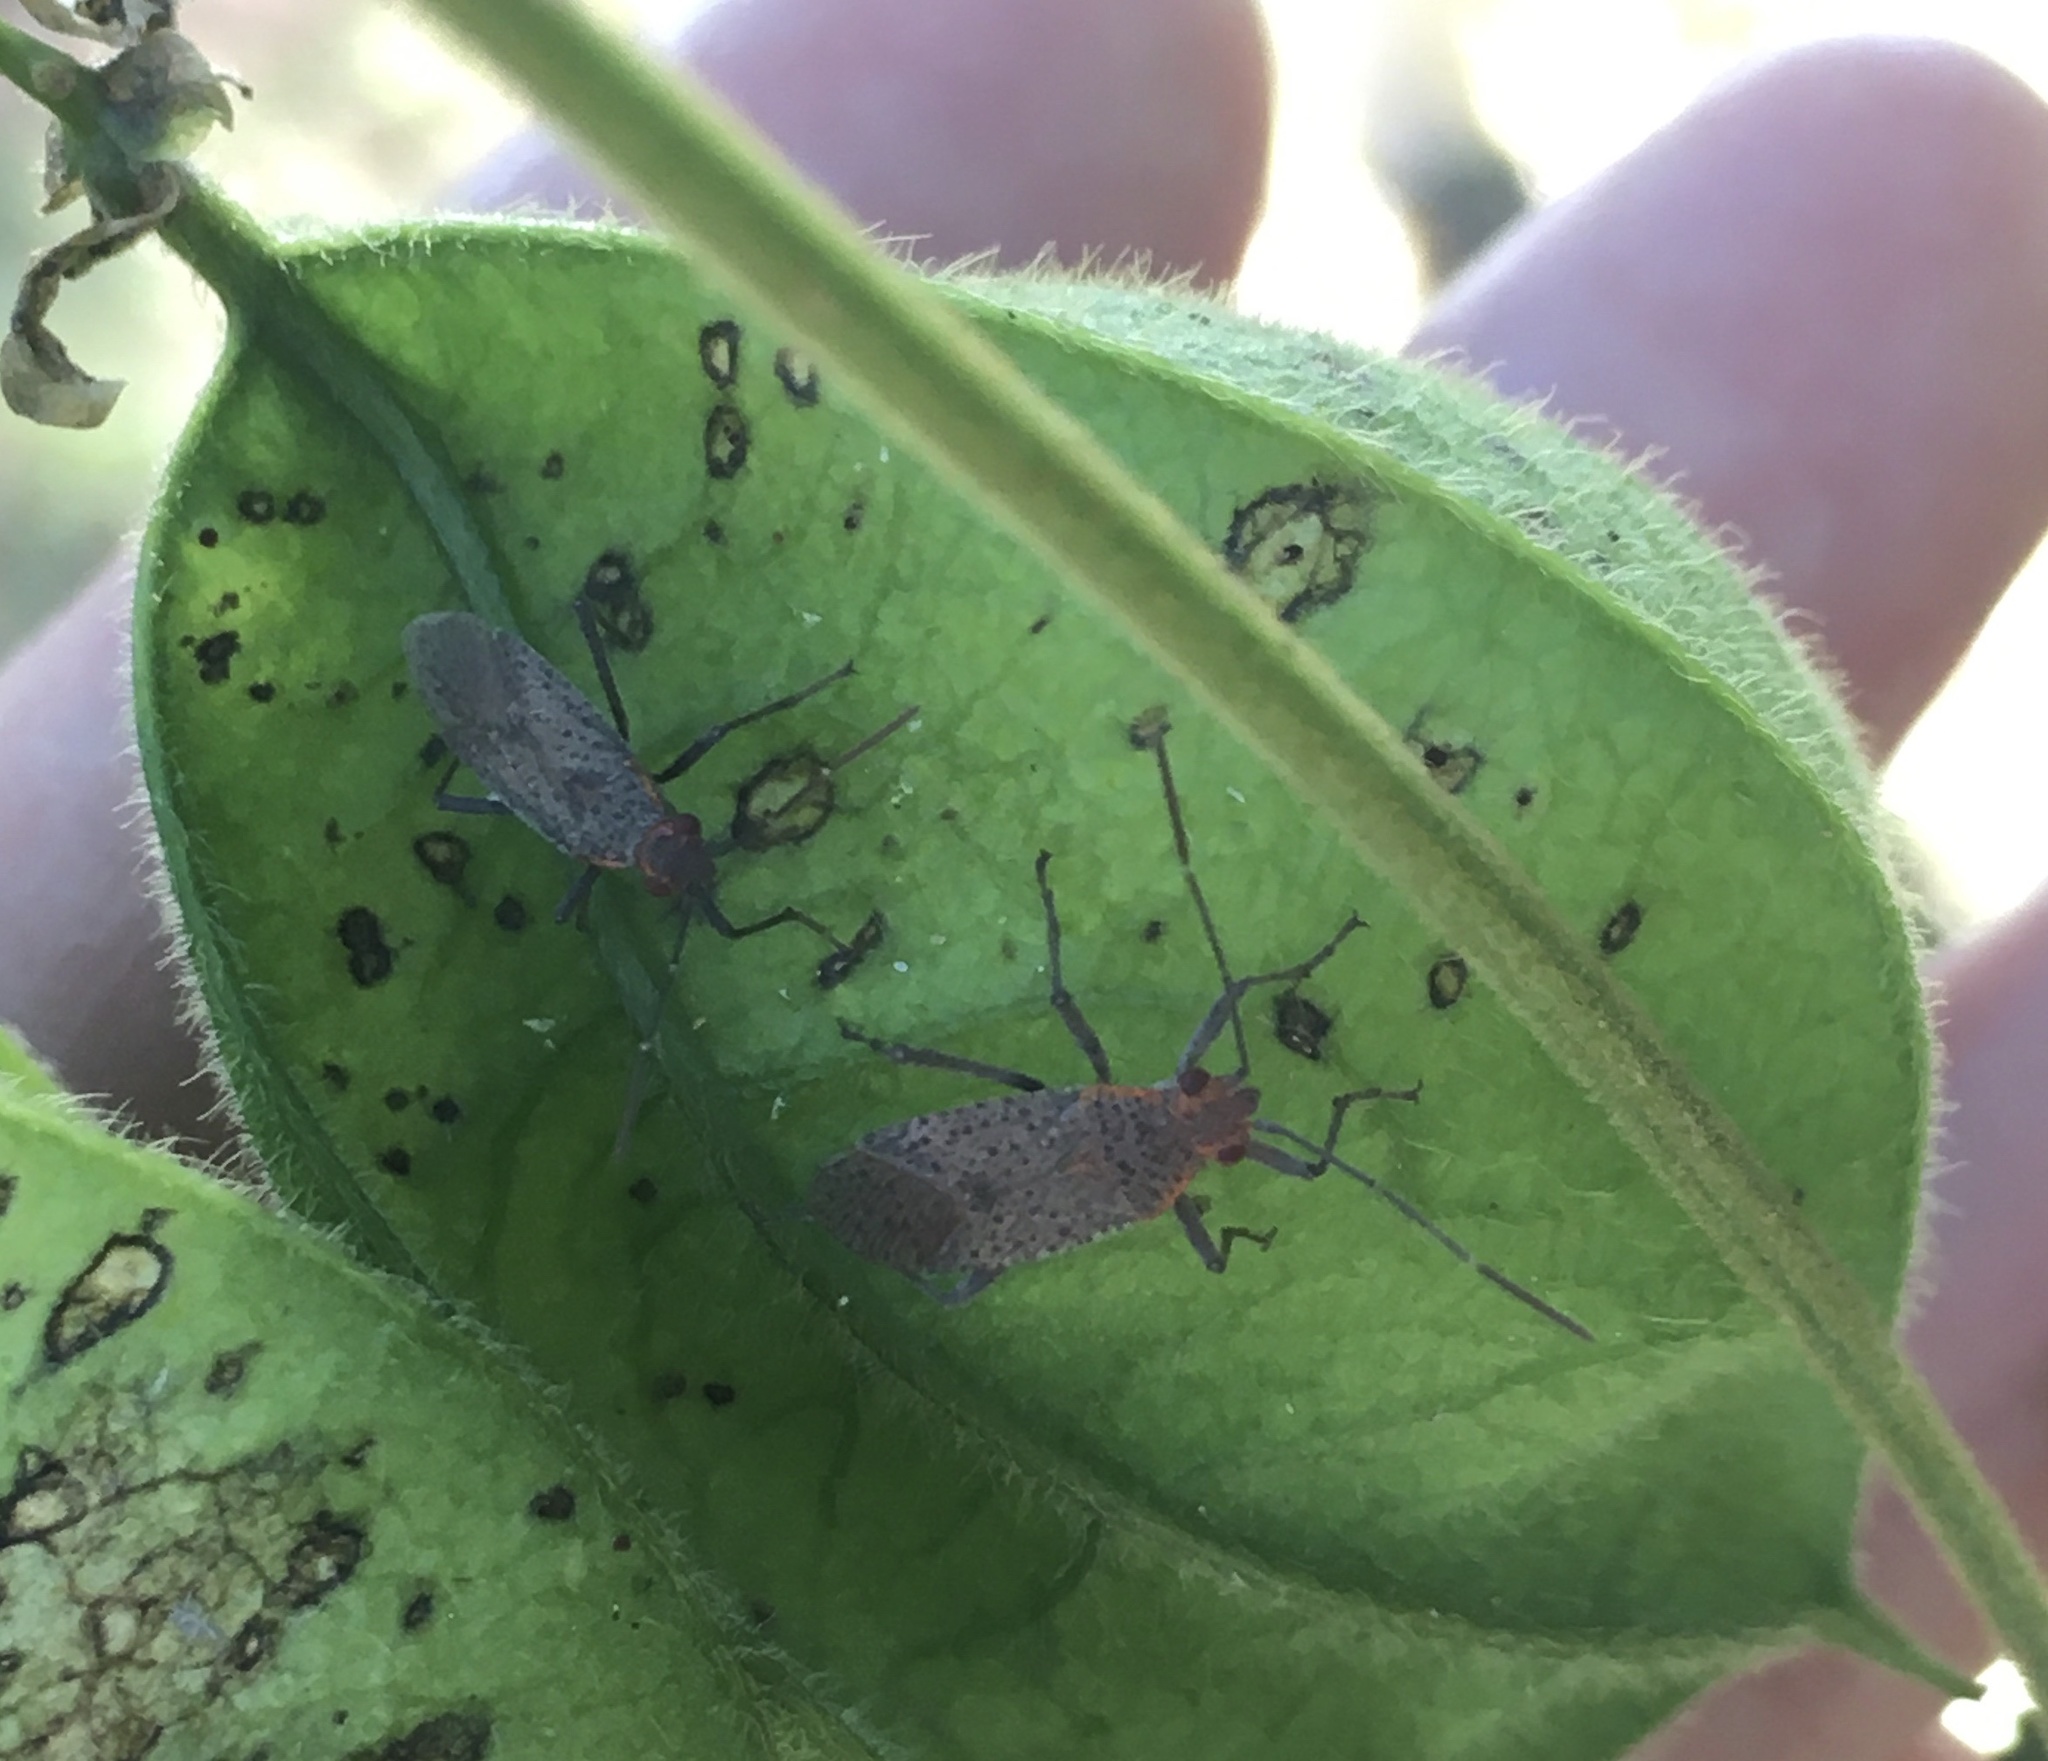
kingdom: Animalia
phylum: Arthropoda
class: Insecta
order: Hemiptera
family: Rhopalidae
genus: Jadera
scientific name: Jadera coturnix
